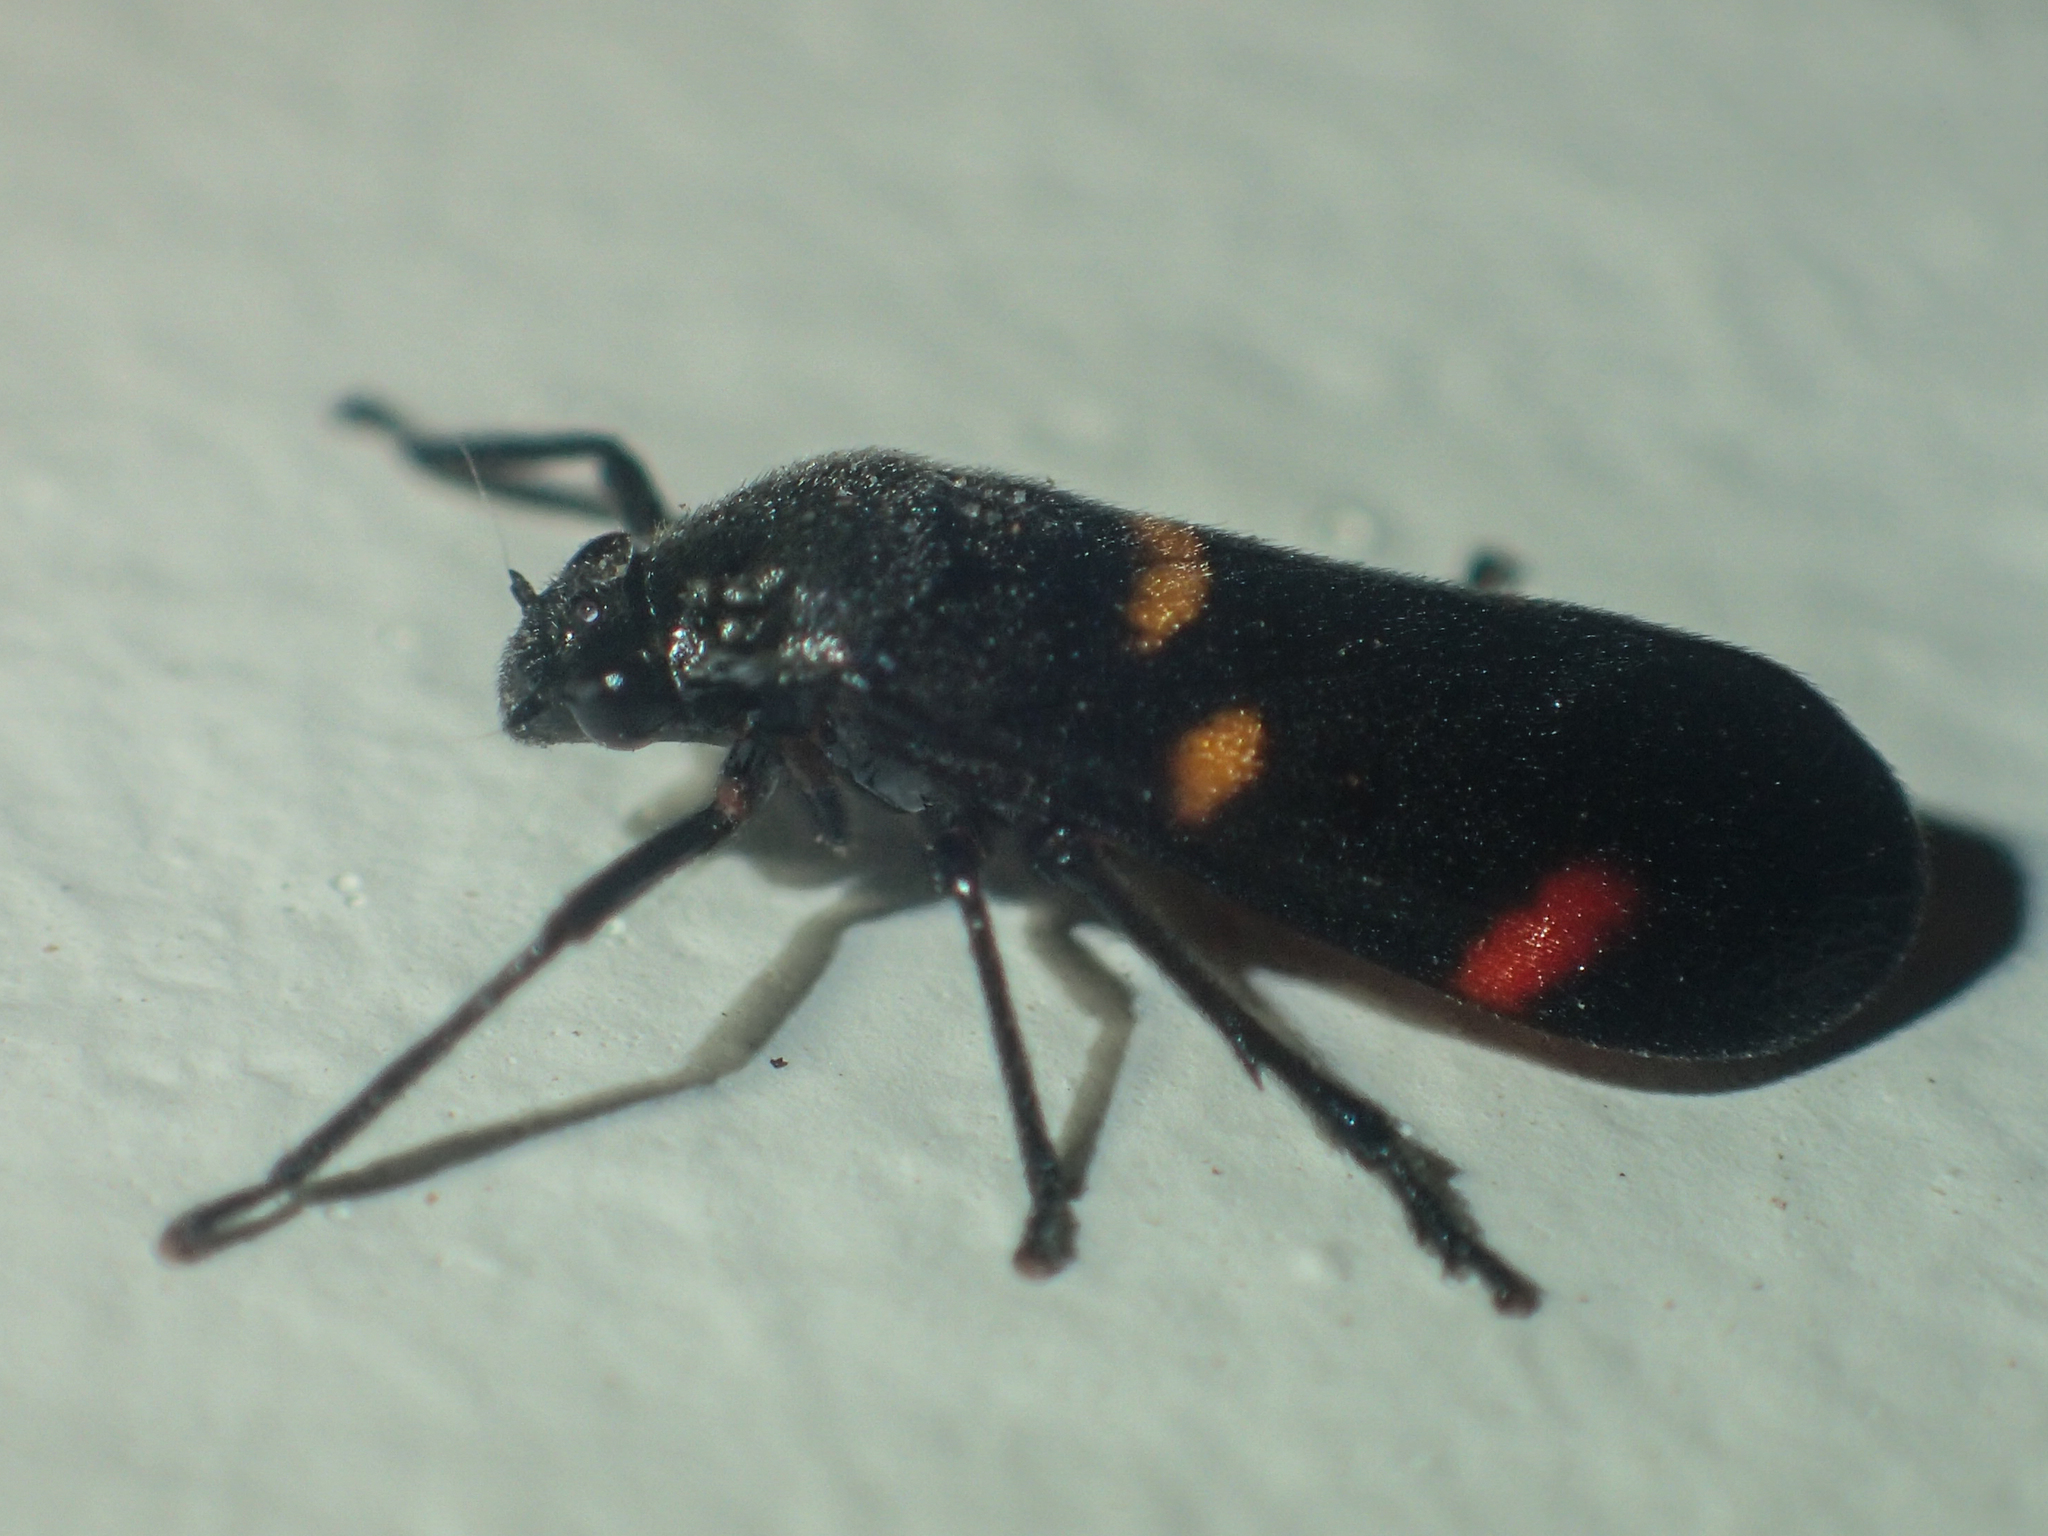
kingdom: Animalia
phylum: Arthropoda
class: Insecta
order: Hemiptera
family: Cercopidae
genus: Callitettix
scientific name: Callitettix carinifrons
